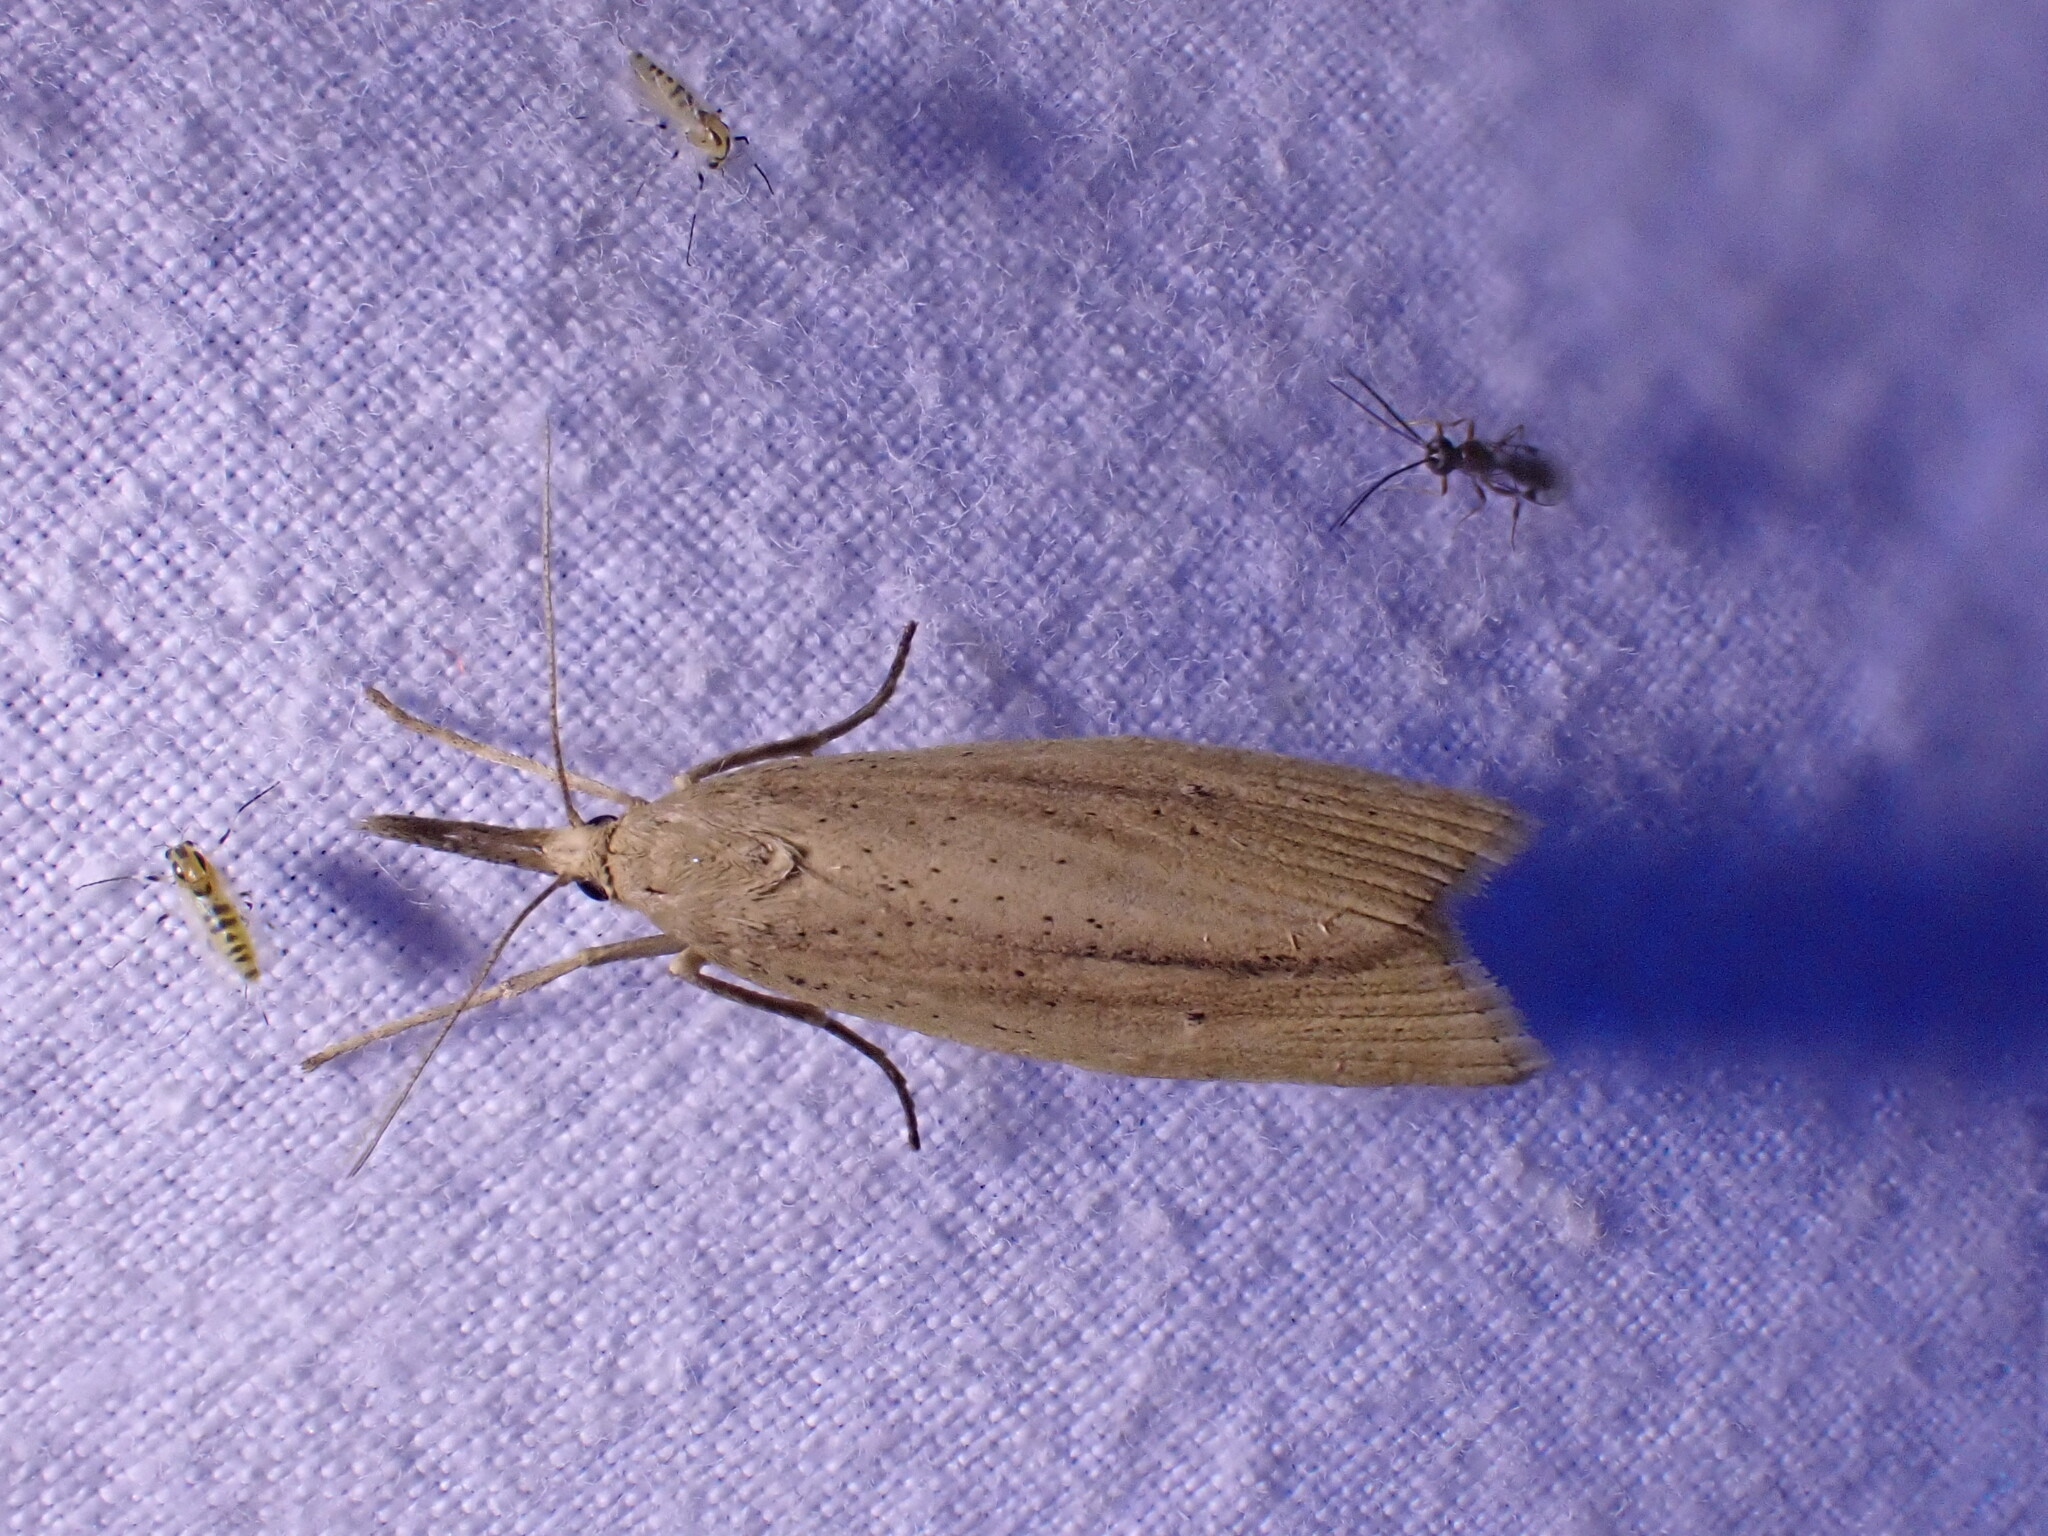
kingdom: Animalia
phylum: Arthropoda
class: Insecta
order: Lepidoptera
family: Crambidae
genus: Chilo
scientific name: Chilo phragmitella
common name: Reed veneer
